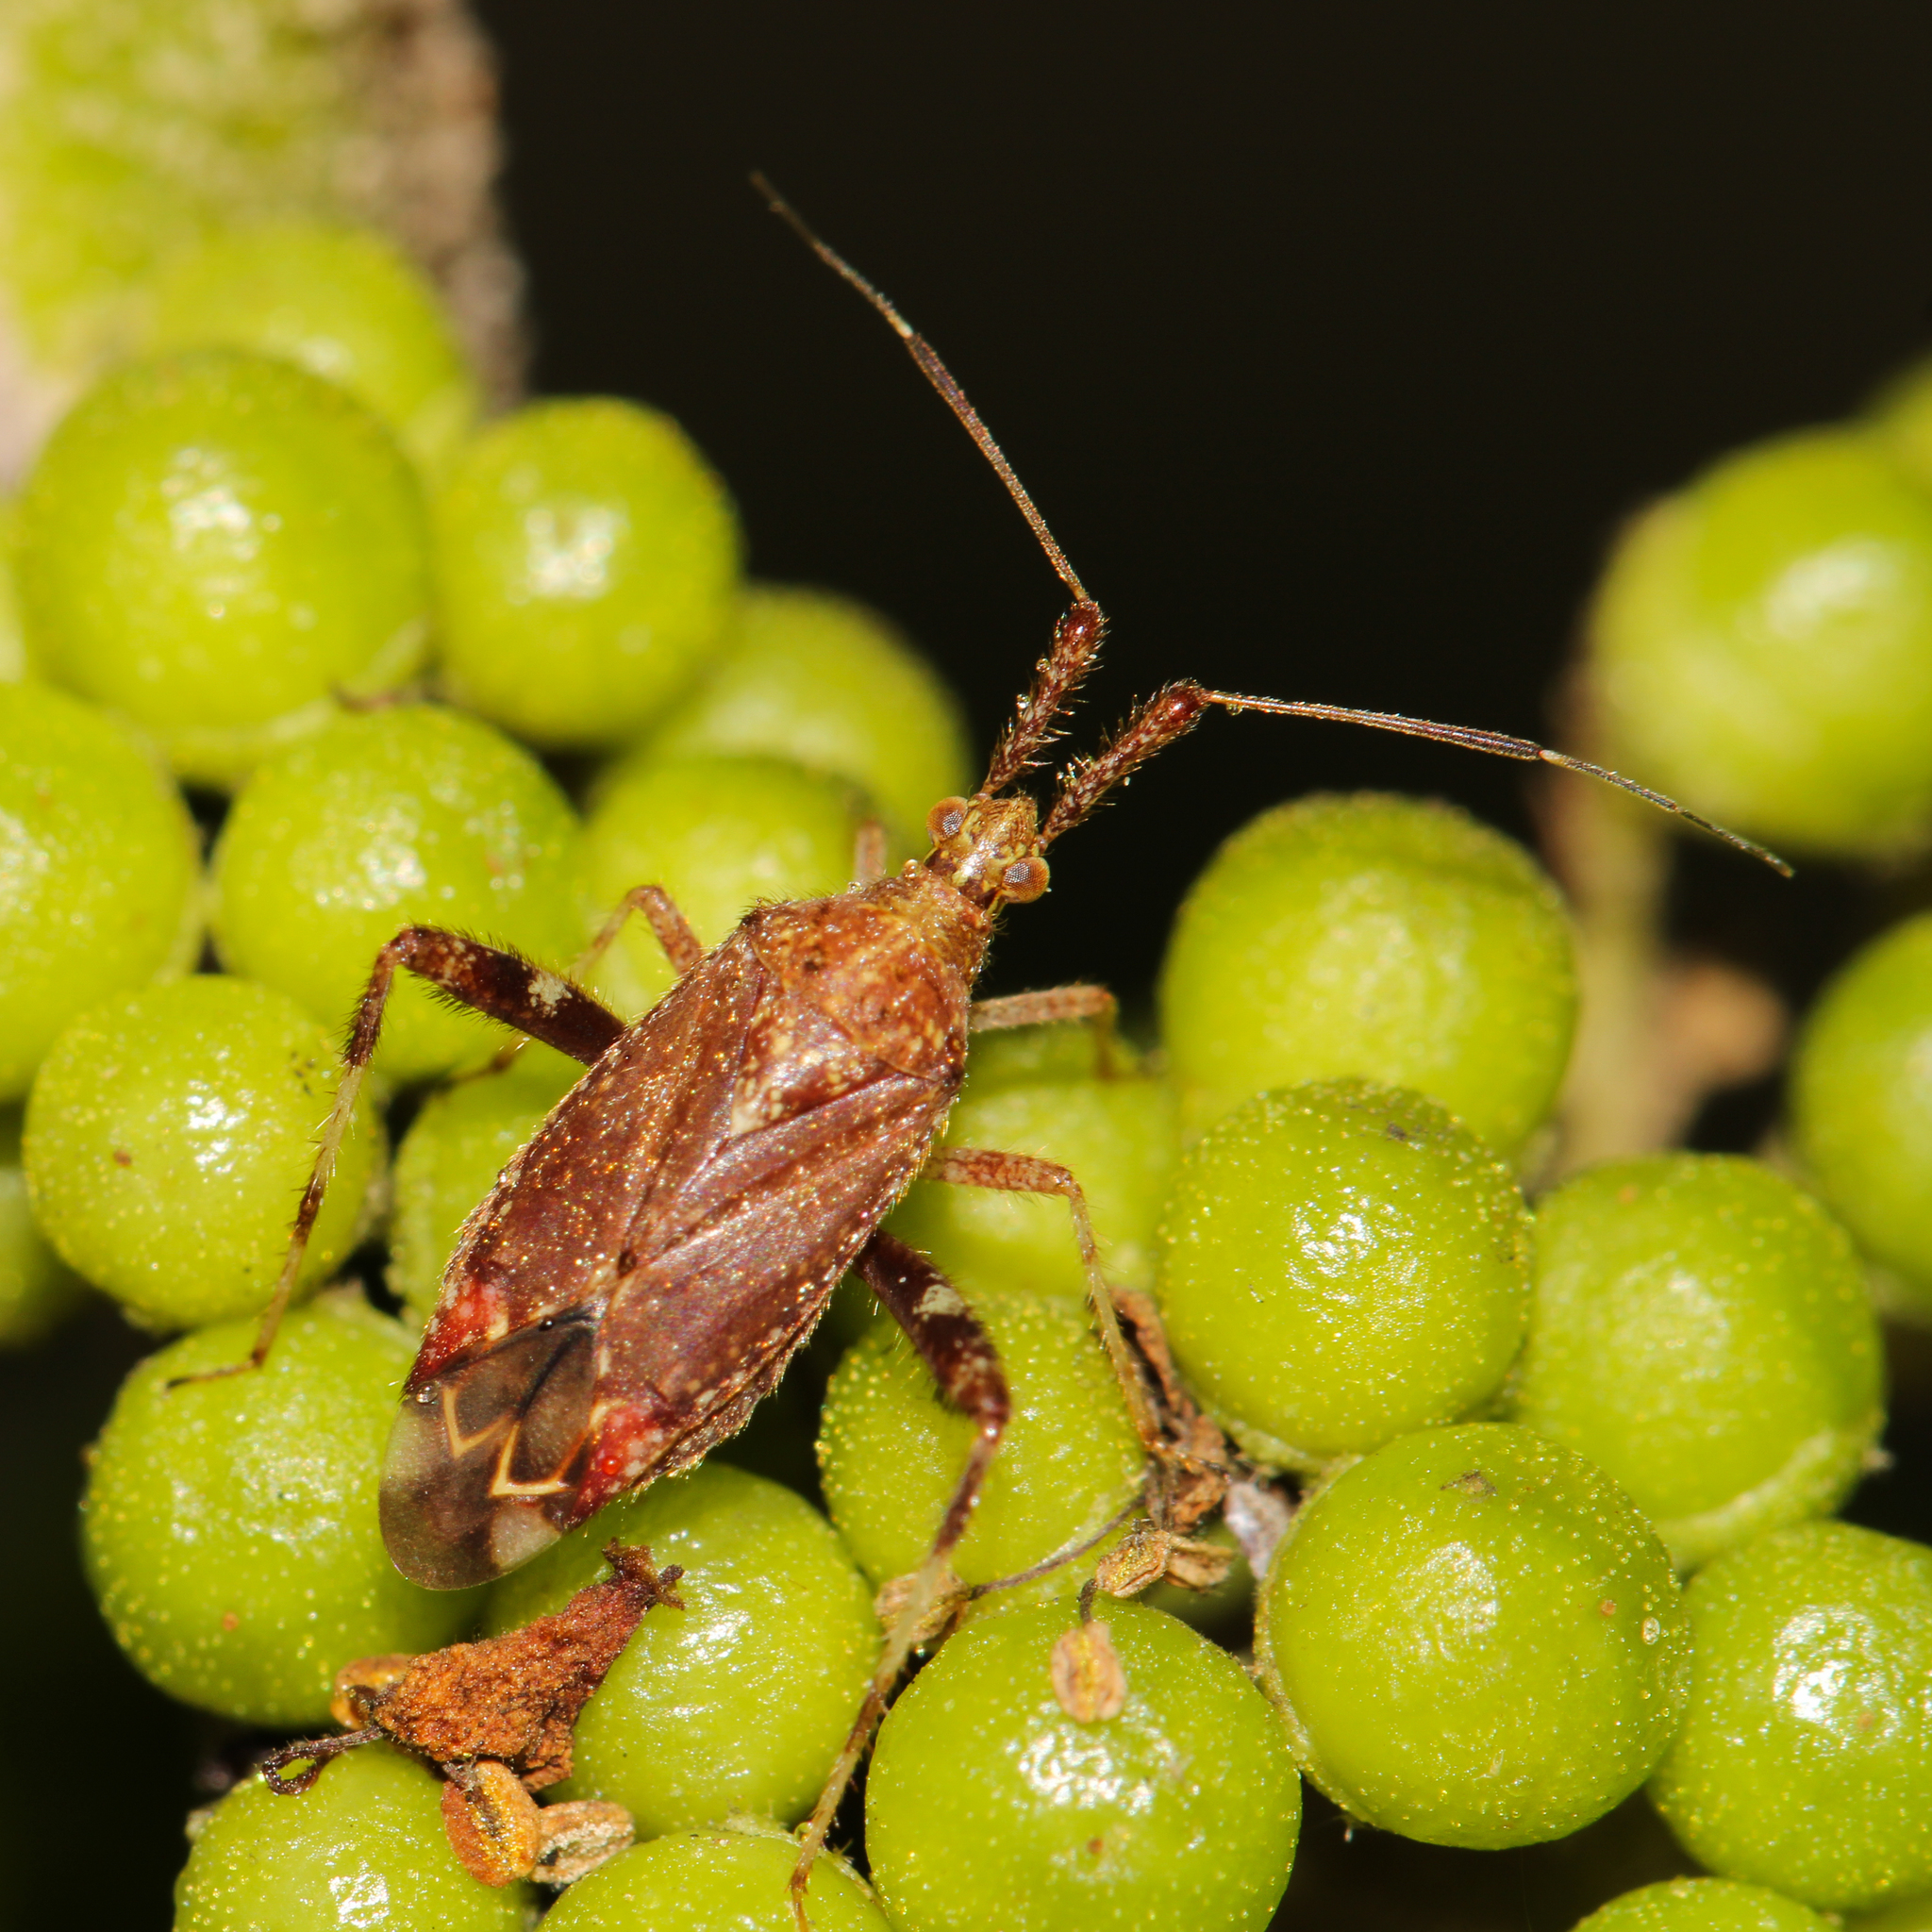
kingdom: Animalia
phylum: Arthropoda
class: Insecta
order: Hemiptera
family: Miridae
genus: Neurocolpus
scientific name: Neurocolpus nubilus
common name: Clouded plant bug
